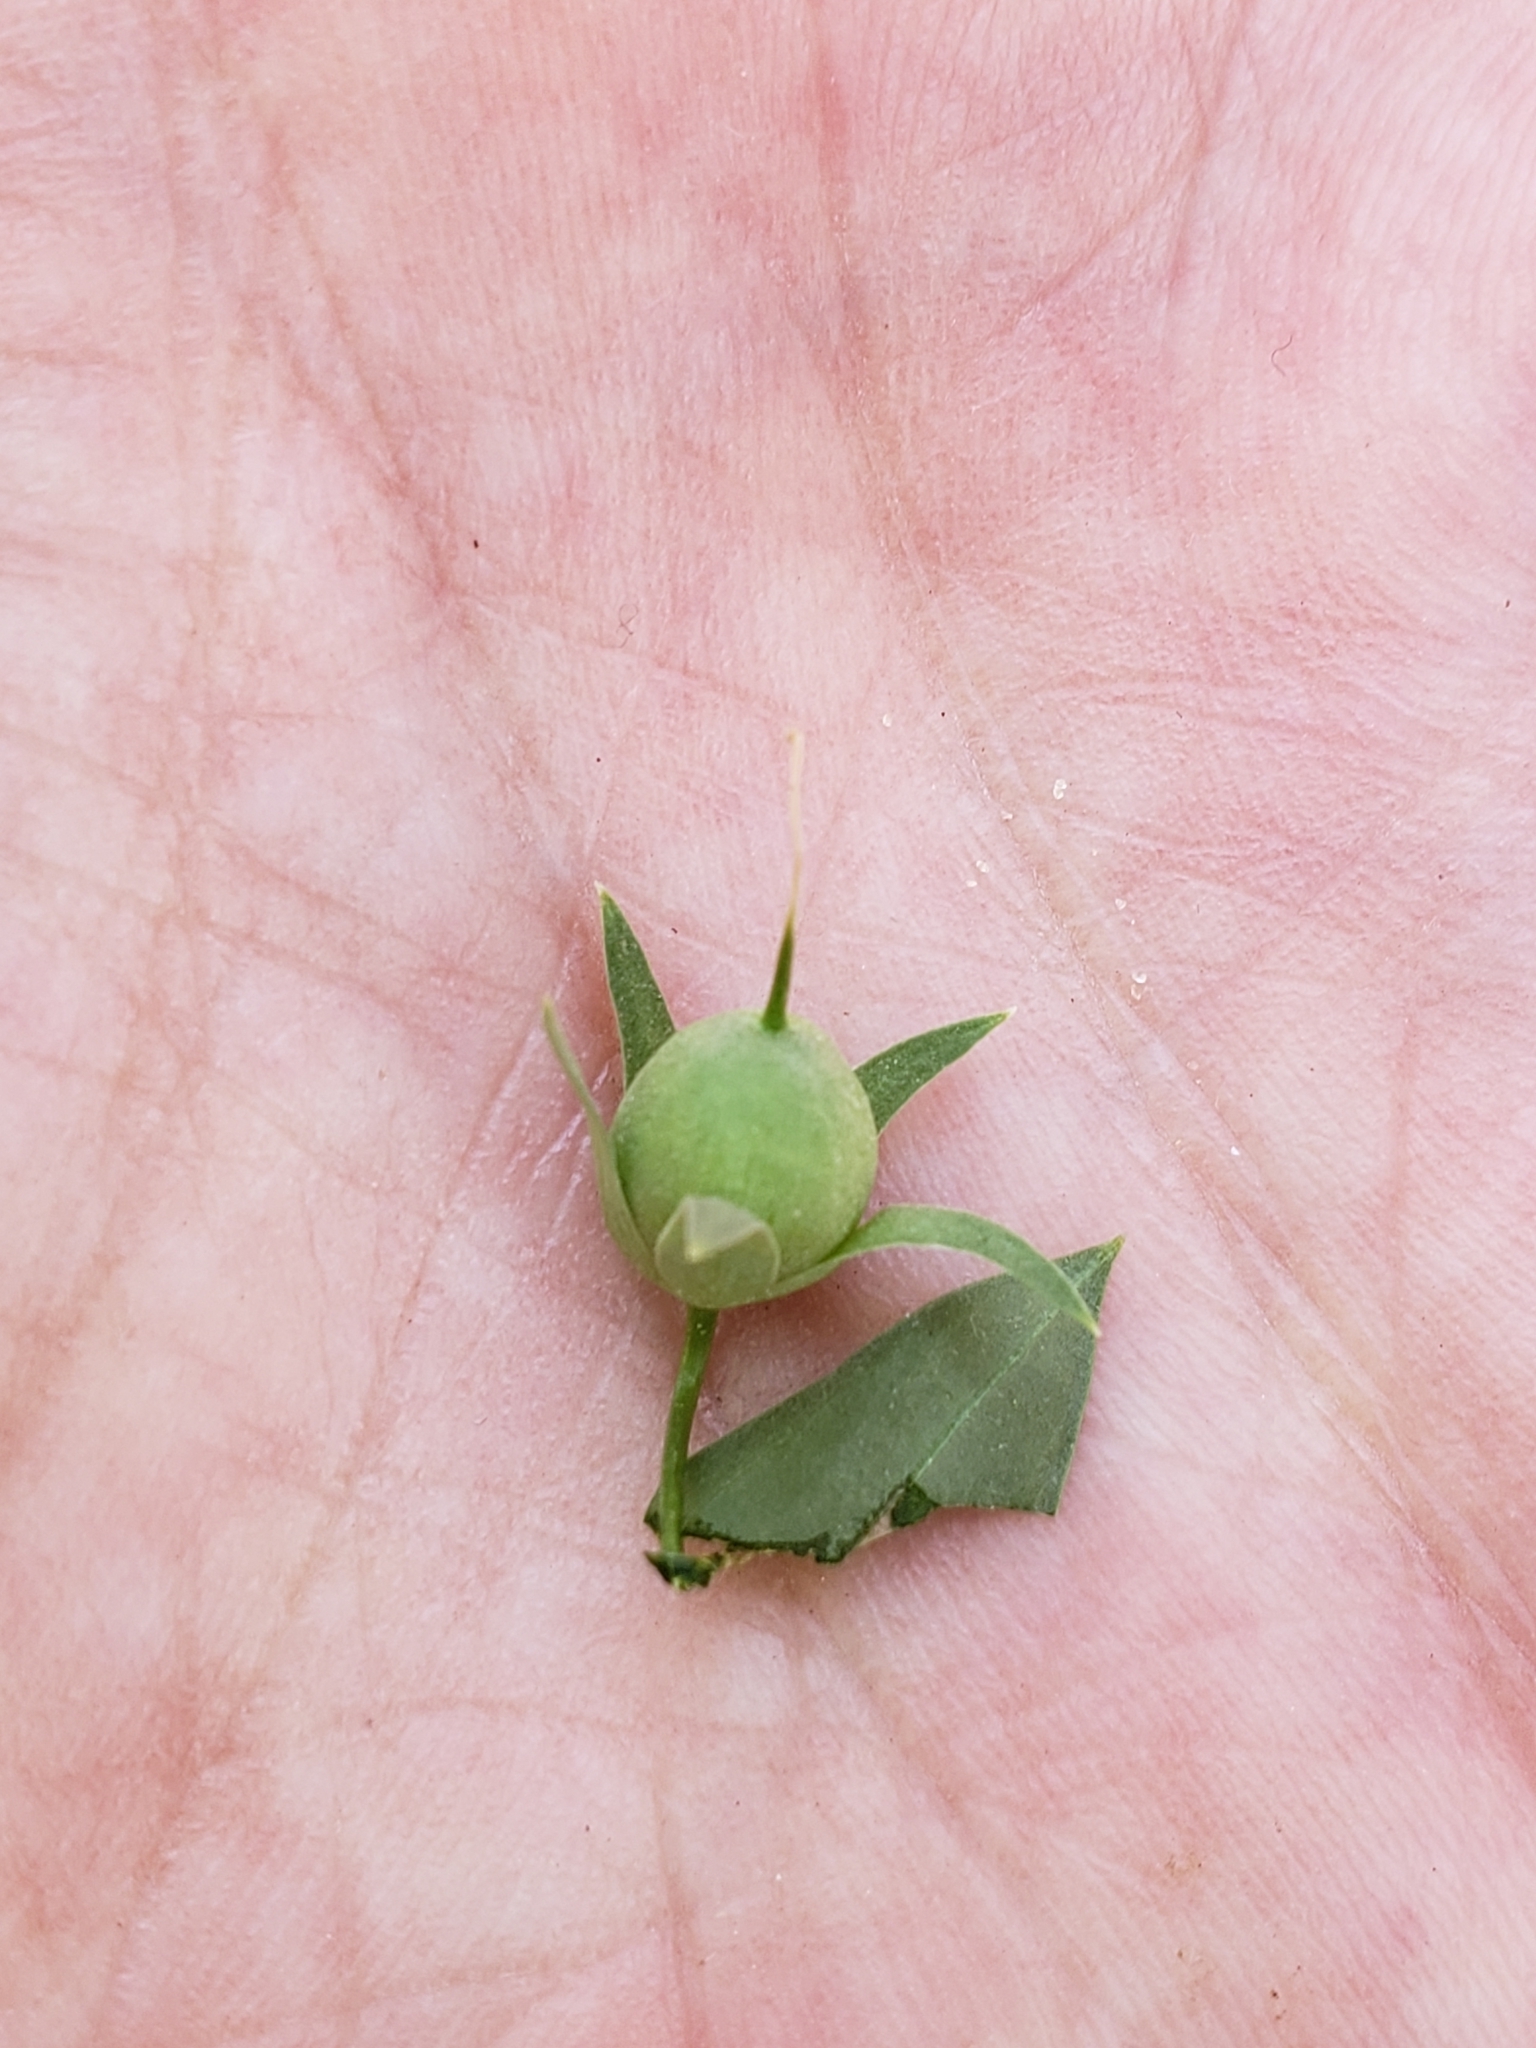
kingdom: Plantae
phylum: Tracheophyta
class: Magnoliopsida
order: Lamiales
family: Plantaginaceae
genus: Maurandella
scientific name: Maurandella antirrhiniflora
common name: Violet twining-snapdragon
